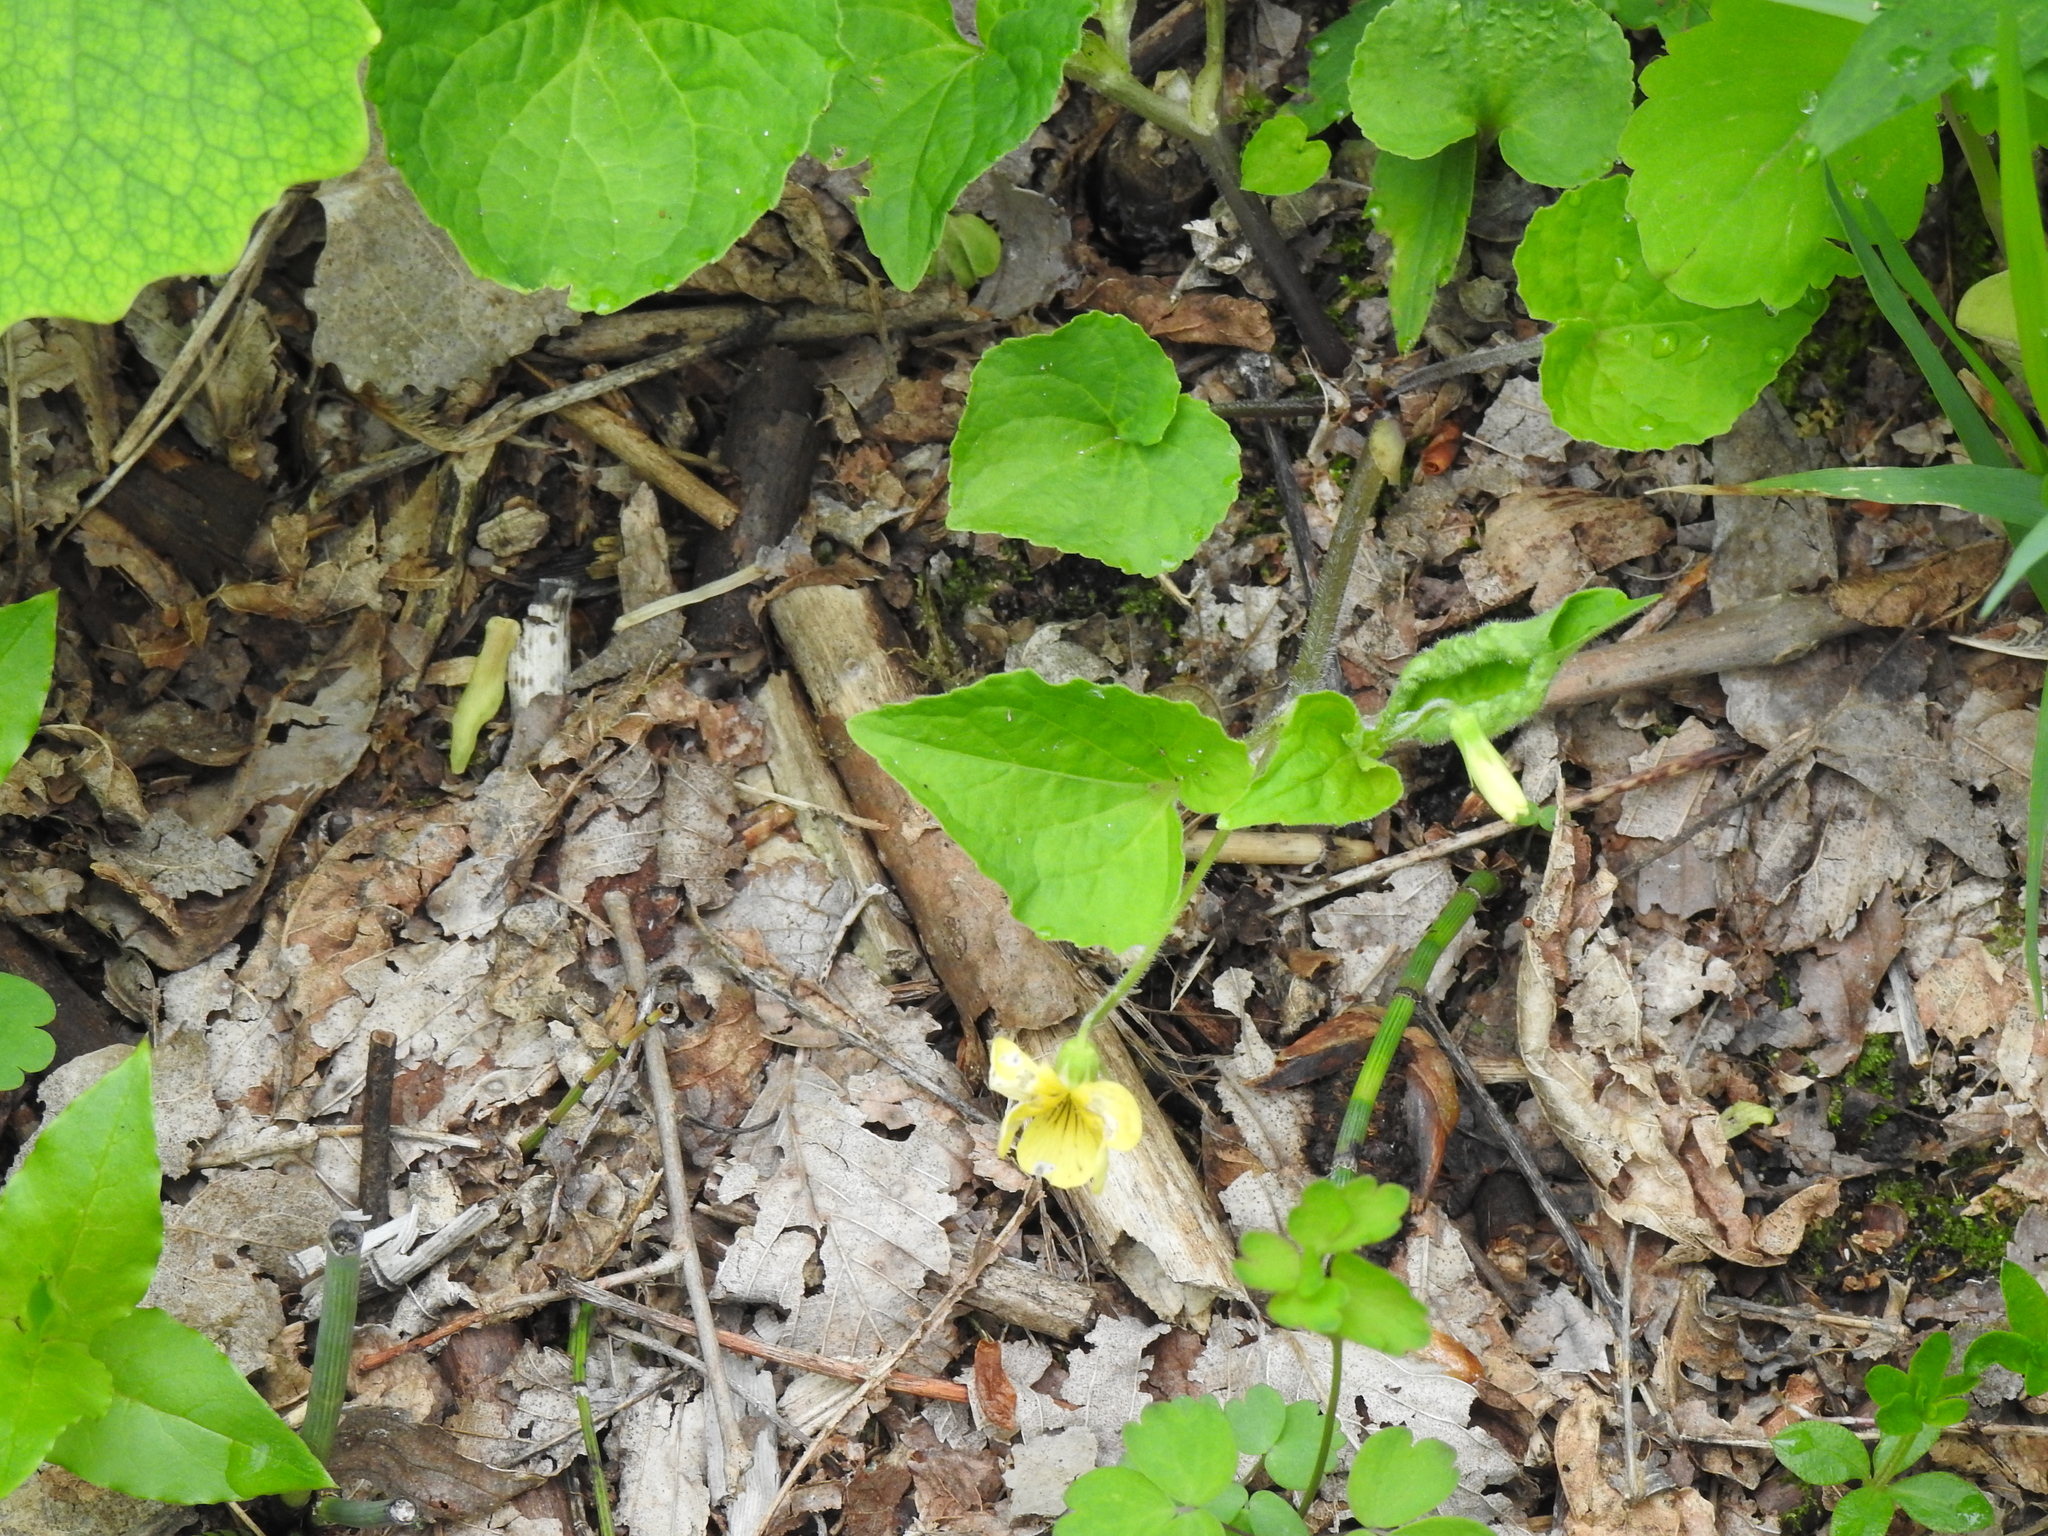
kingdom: Plantae
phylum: Tracheophyta
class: Magnoliopsida
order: Malpighiales
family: Violaceae
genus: Viola
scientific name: Viola eriocarpa
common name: Smooth yellow violet
